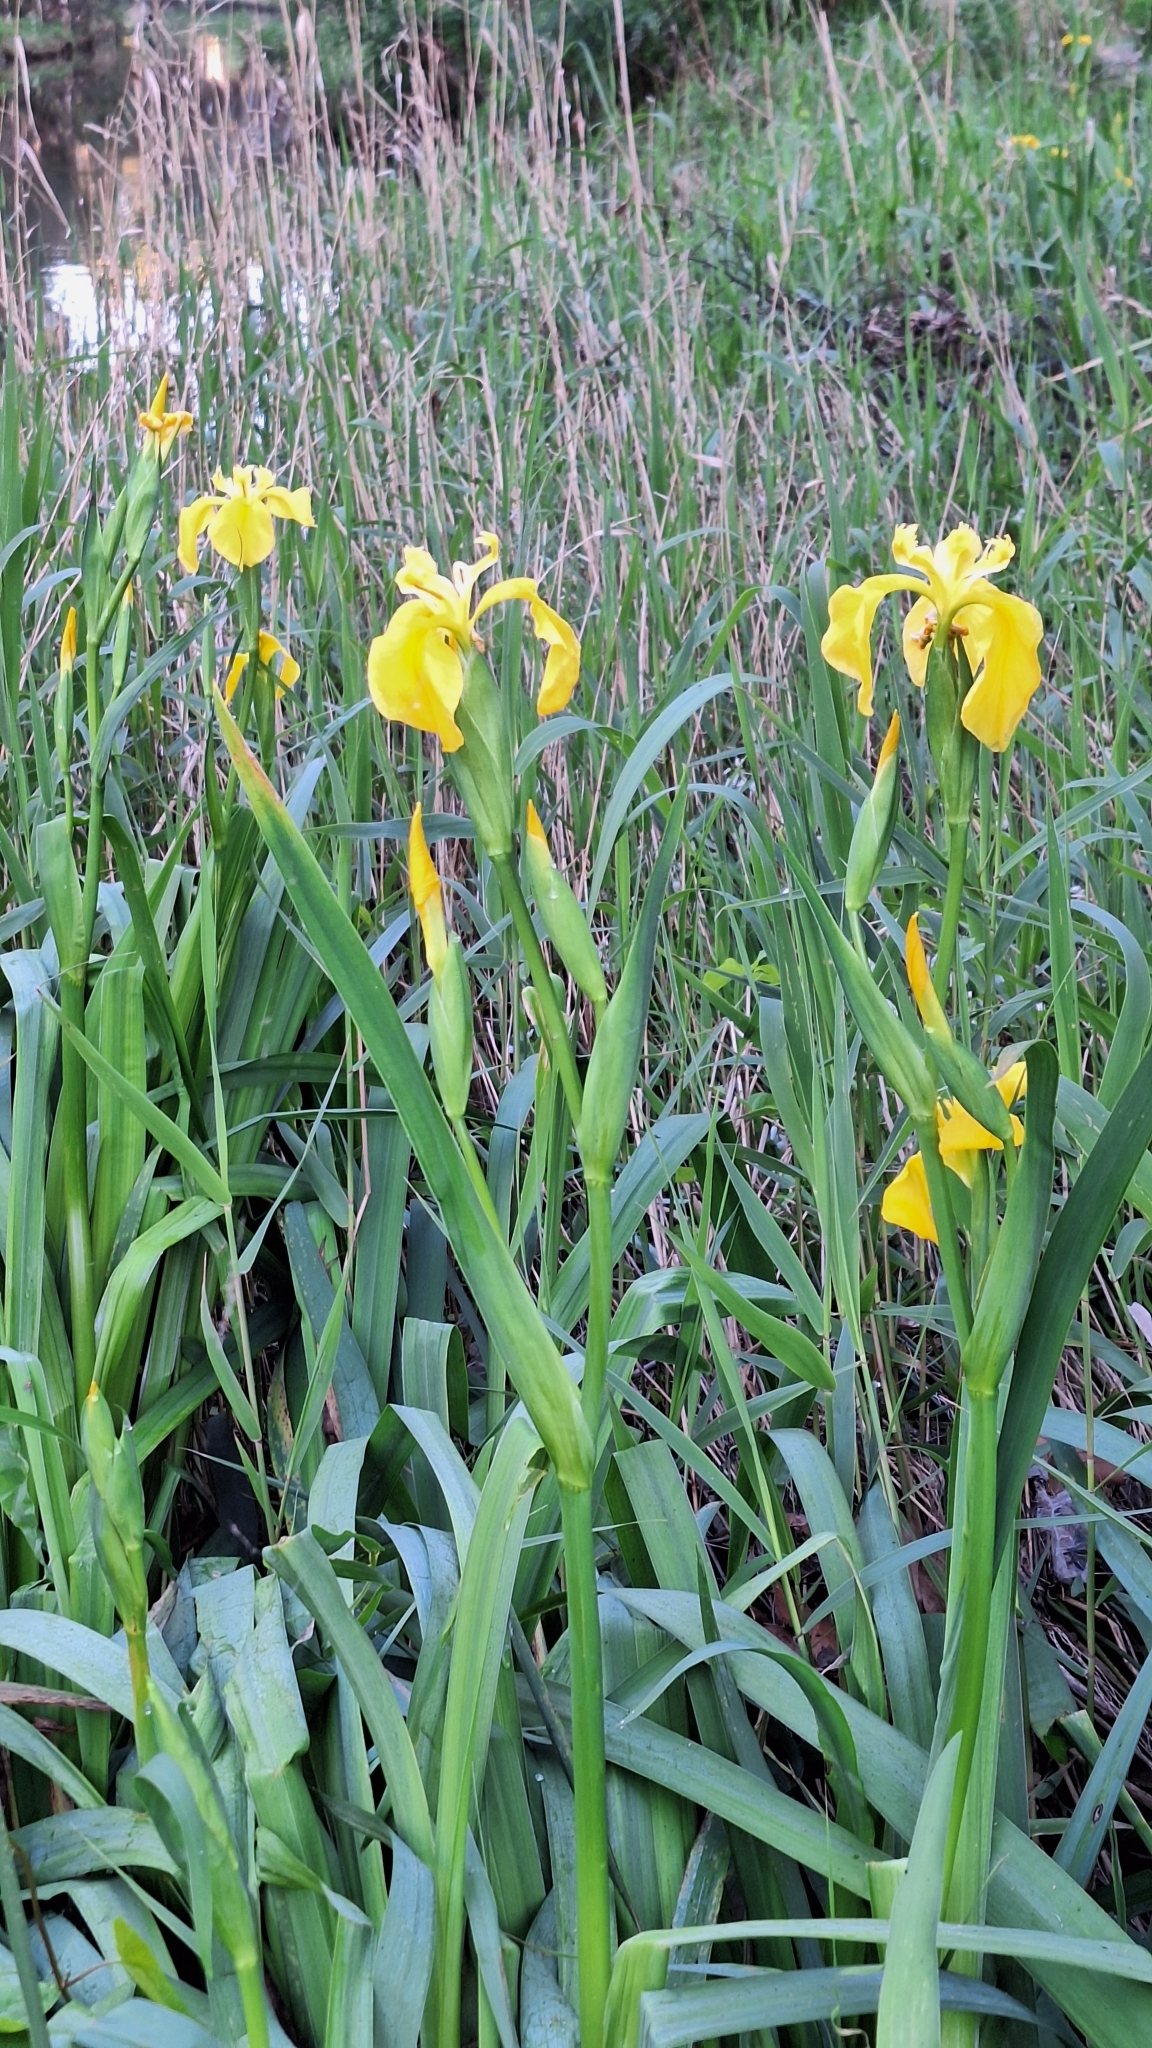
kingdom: Plantae
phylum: Tracheophyta
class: Liliopsida
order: Asparagales
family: Iridaceae
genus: Iris
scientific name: Iris pseudacorus
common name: Yellow flag
